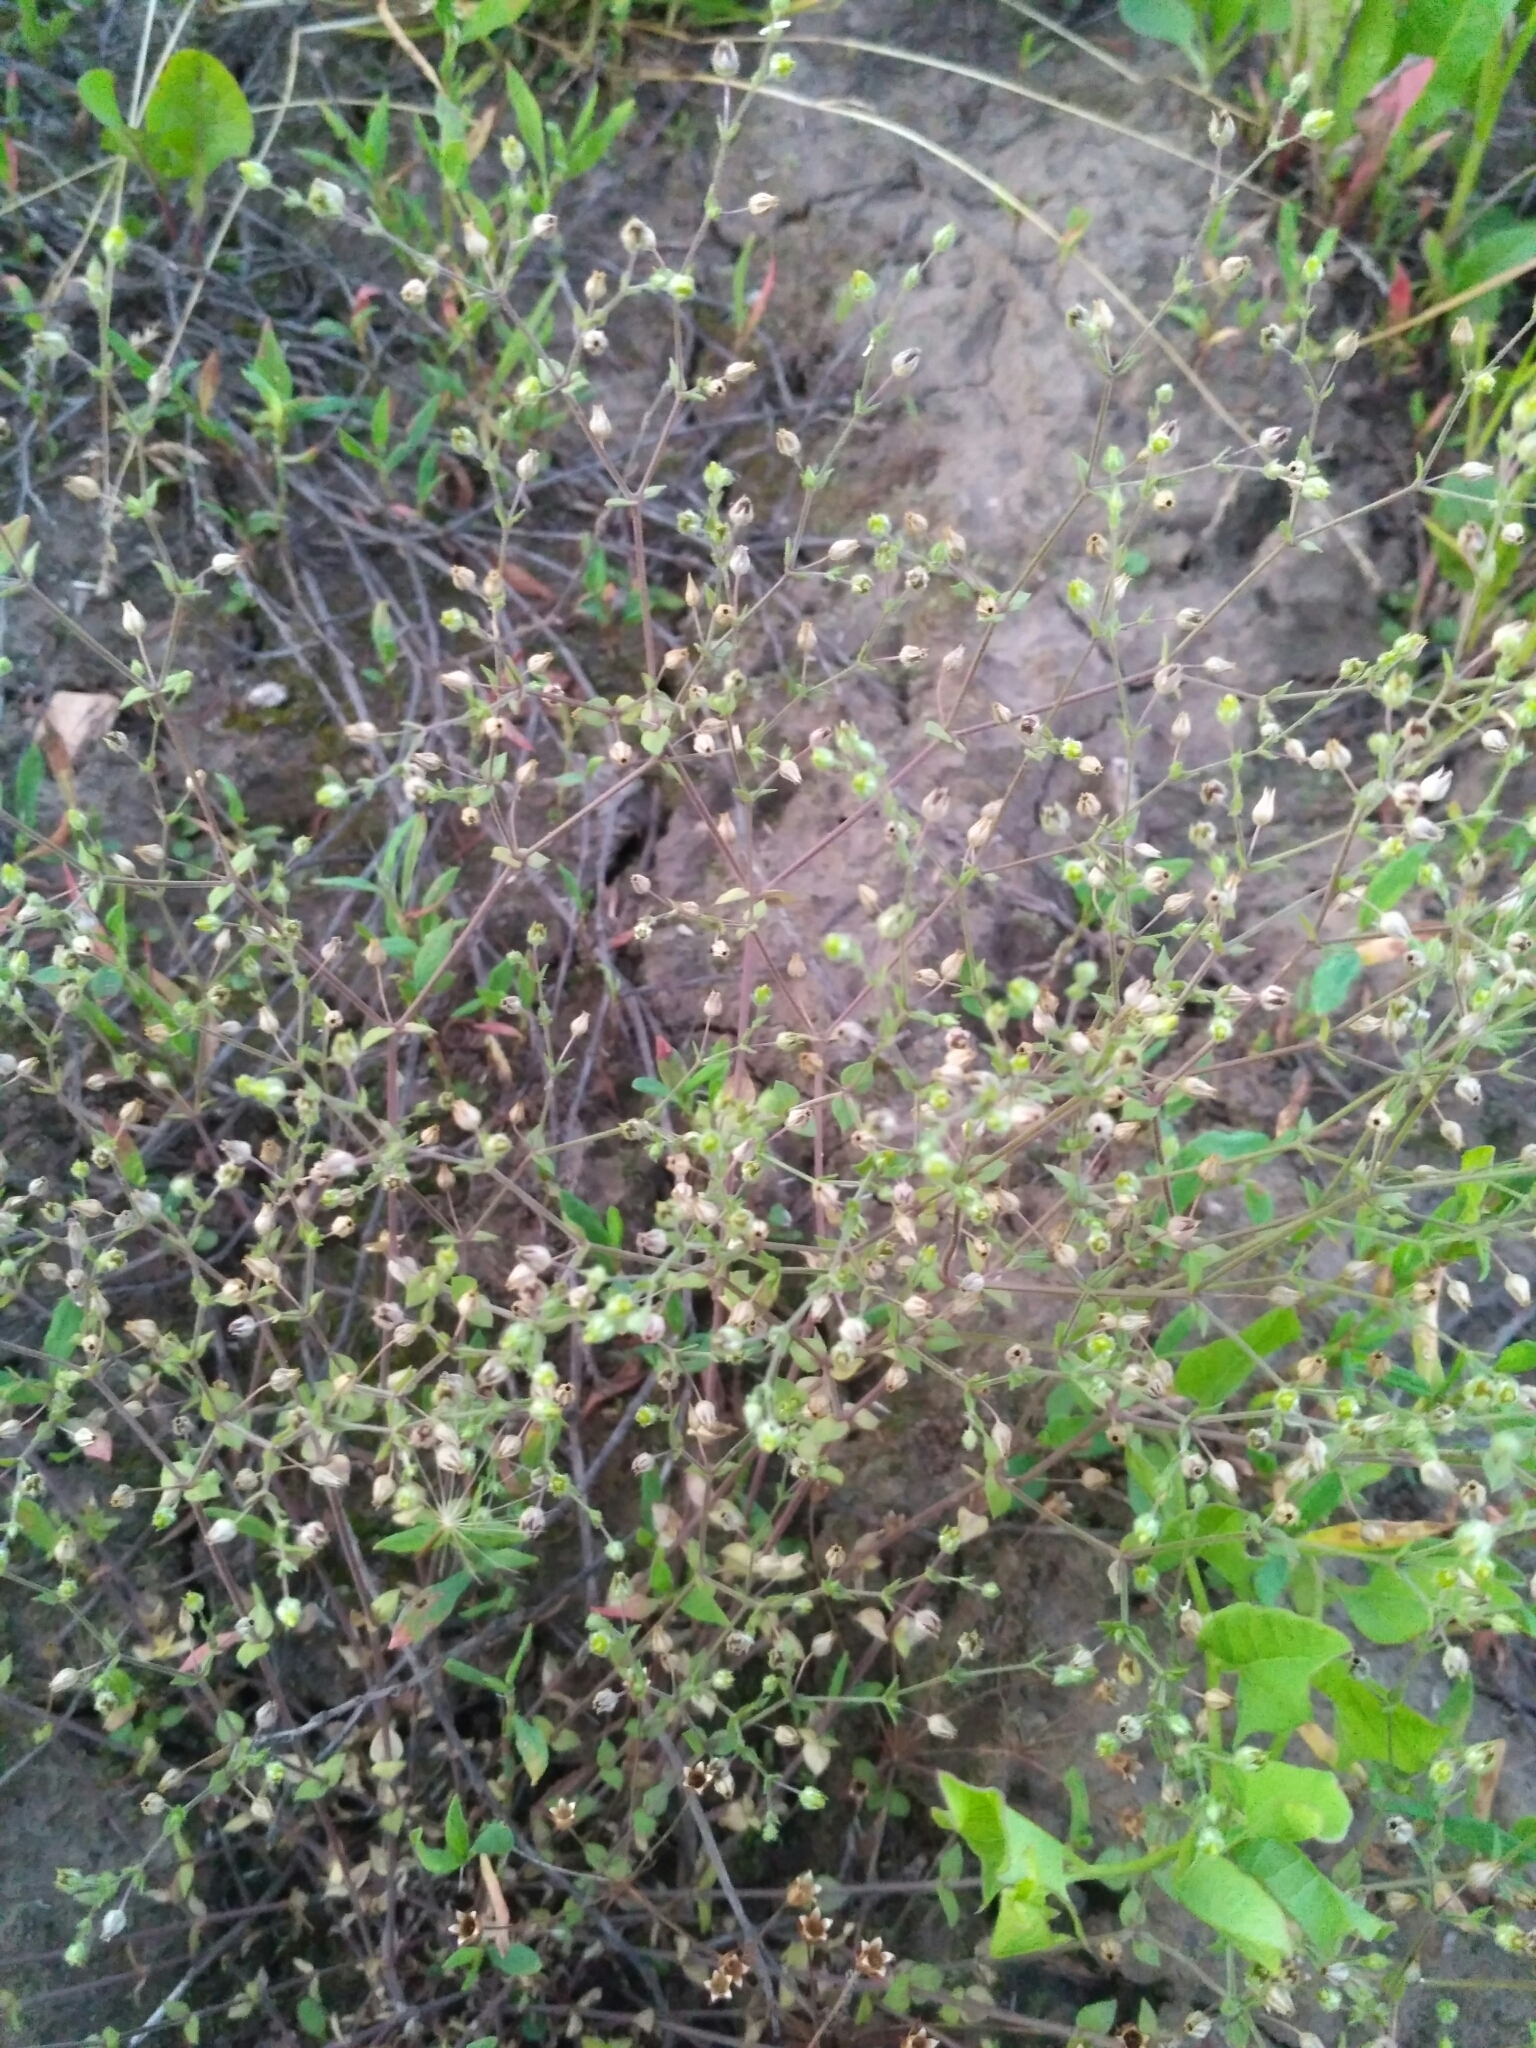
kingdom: Plantae
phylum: Tracheophyta
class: Magnoliopsida
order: Caryophyllales
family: Caryophyllaceae
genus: Arenaria
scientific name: Arenaria serpyllifolia
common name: Thyme-leaved sandwort
